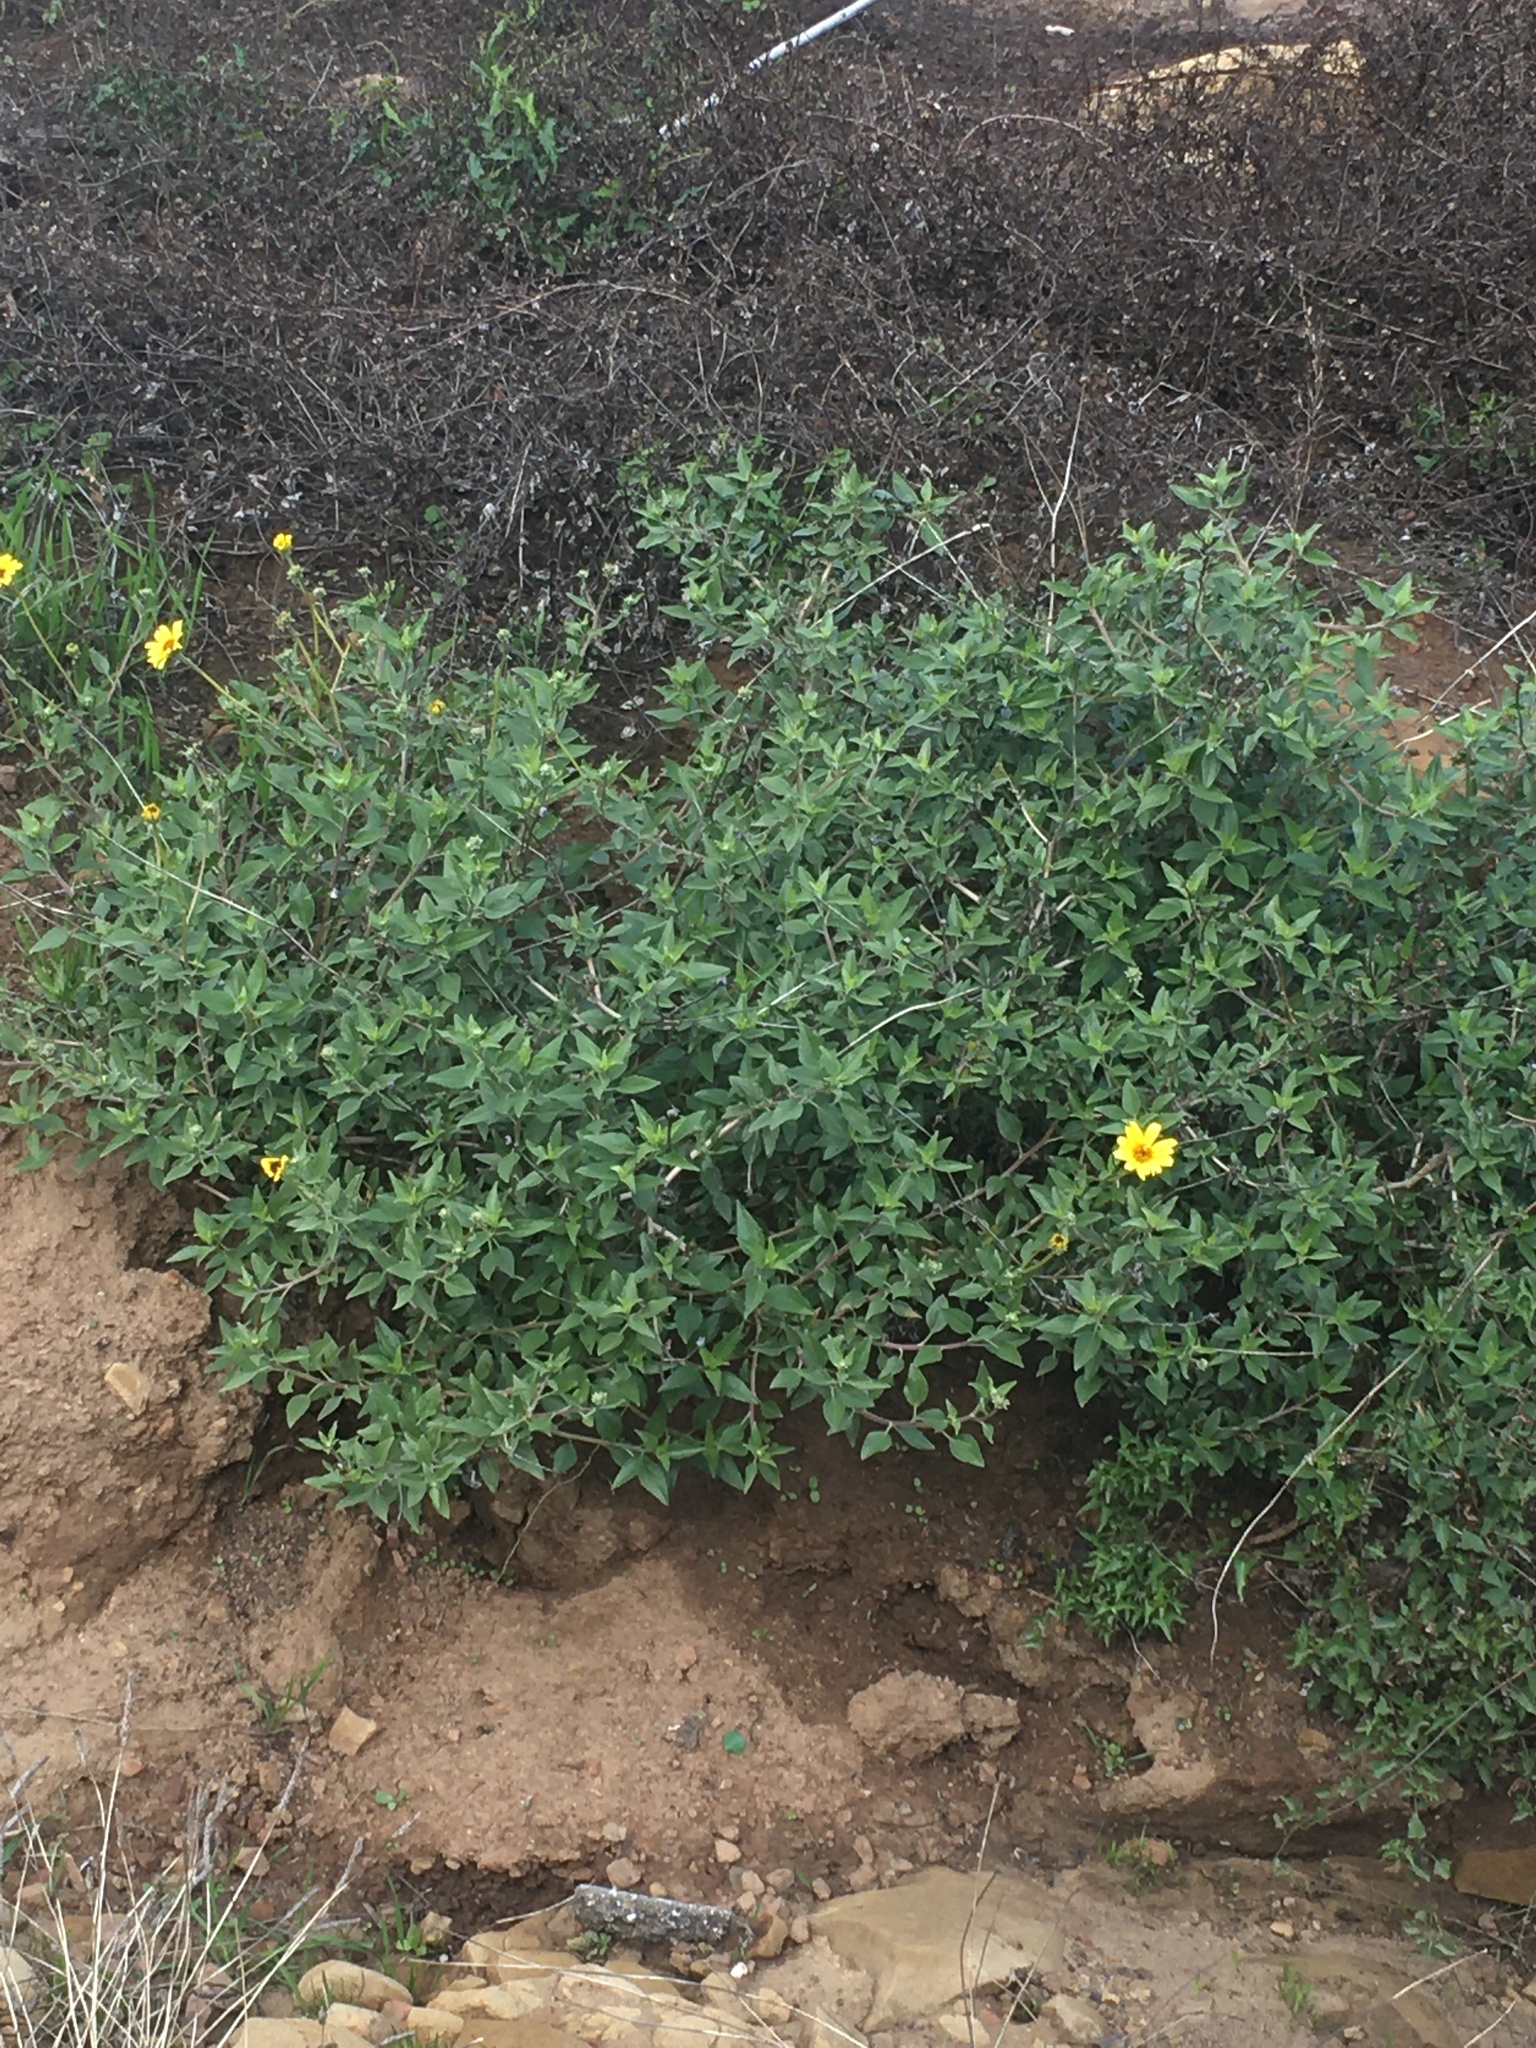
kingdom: Plantae
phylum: Tracheophyta
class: Magnoliopsida
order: Asterales
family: Asteraceae
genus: Encelia
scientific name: Encelia californica
